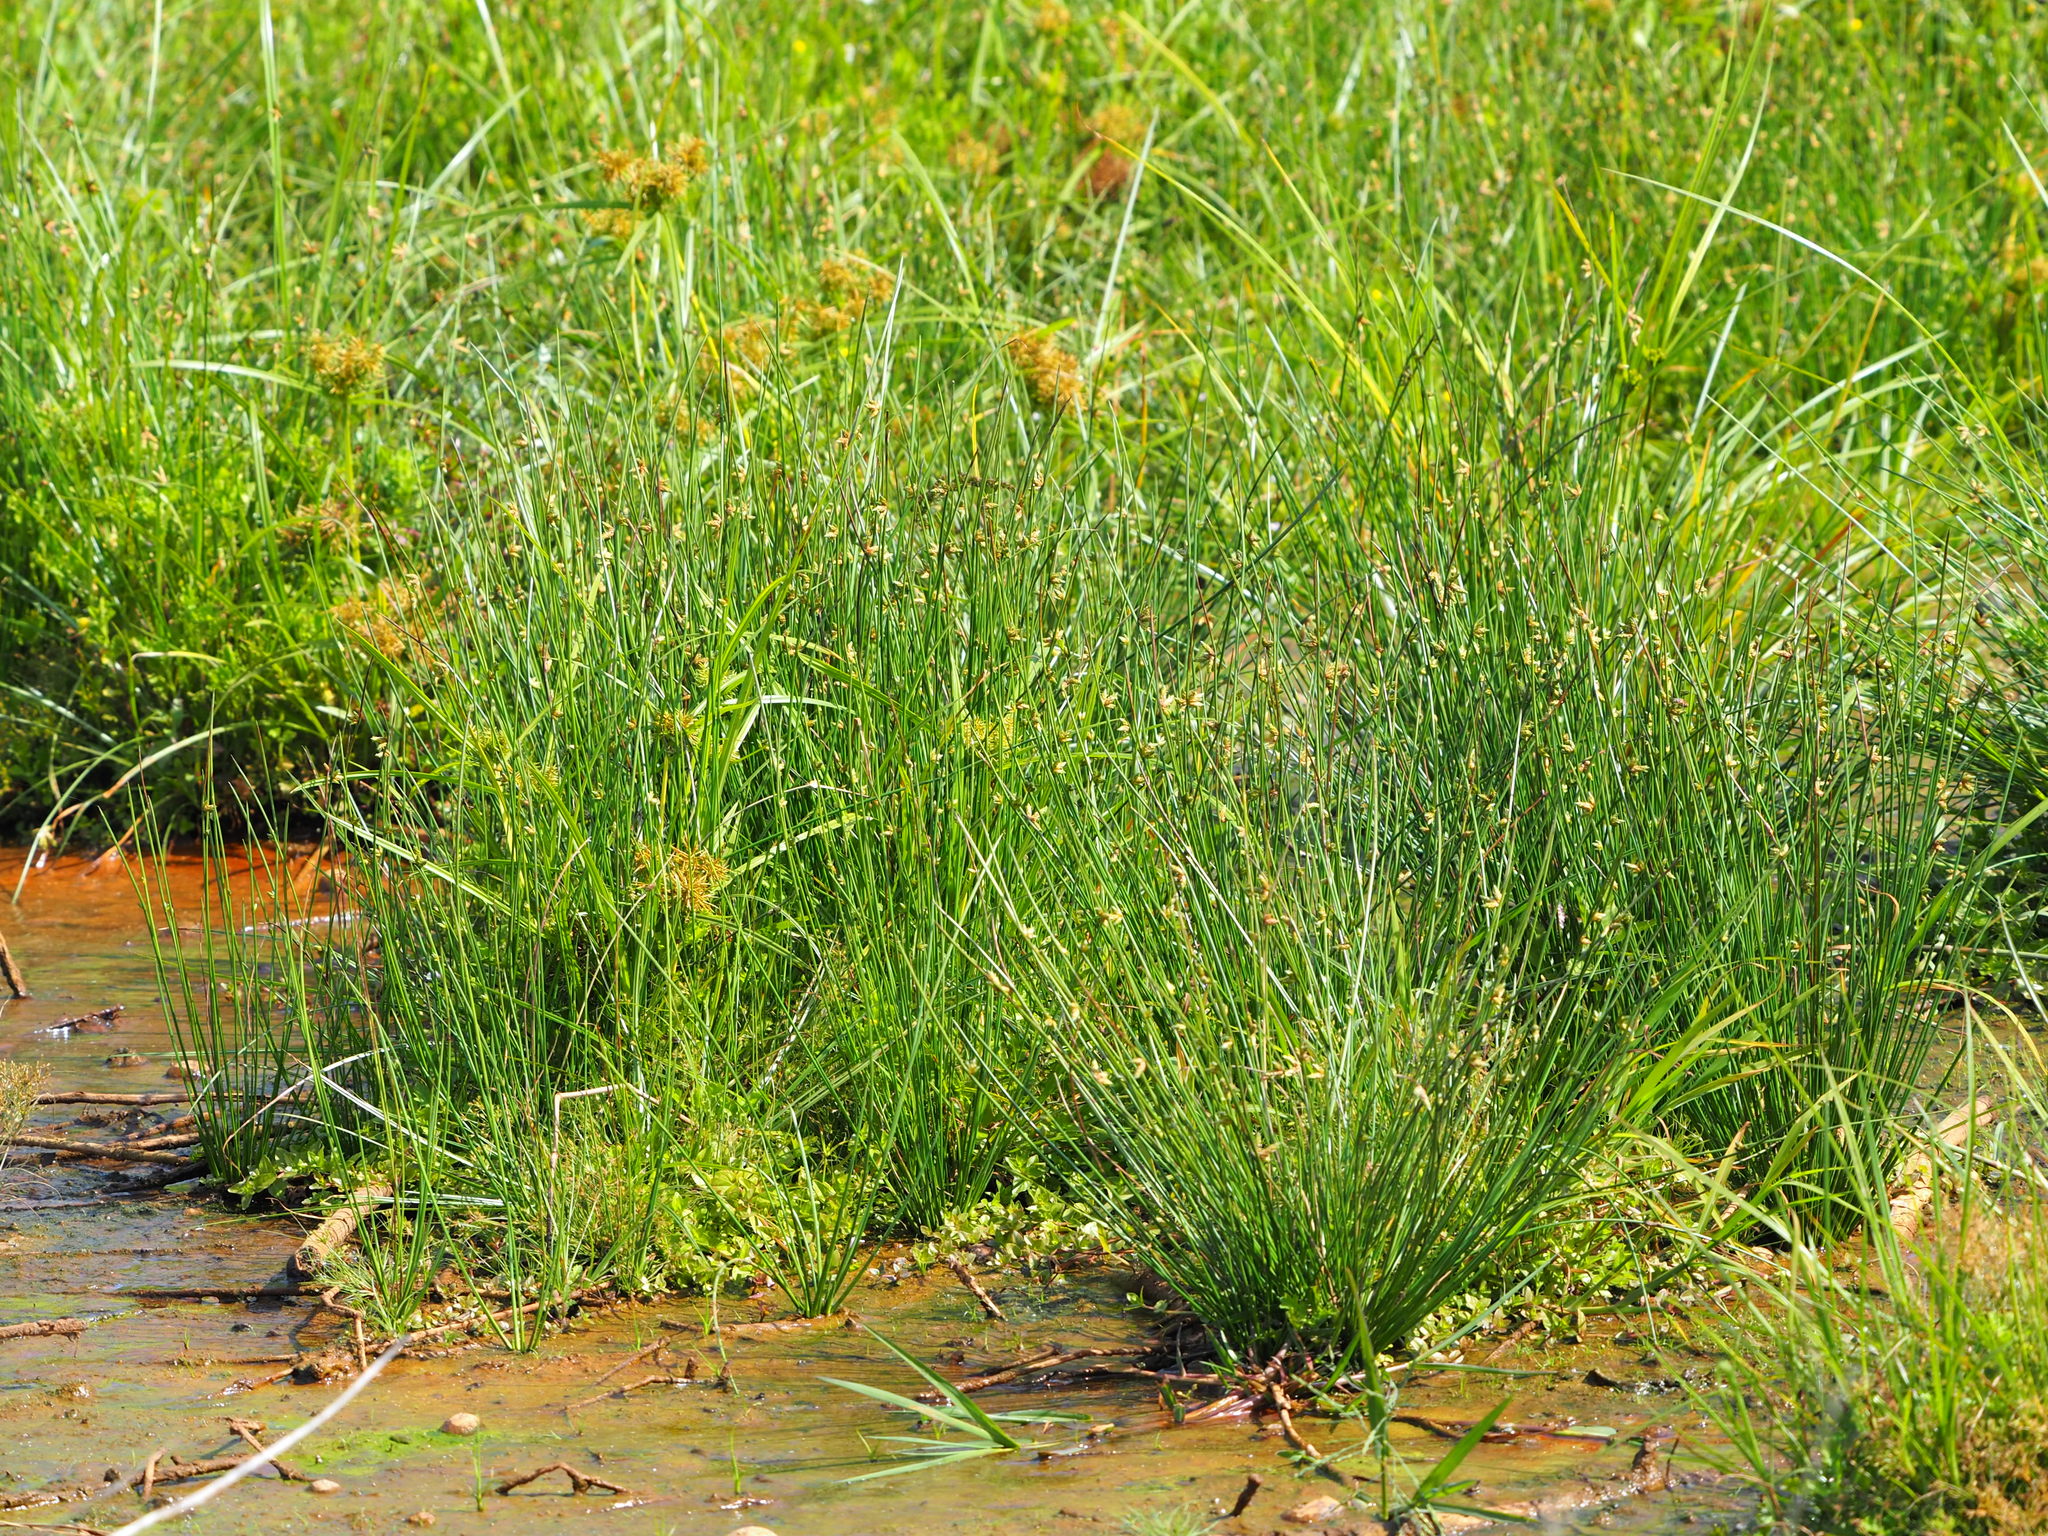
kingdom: Plantae
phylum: Tracheophyta
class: Liliopsida
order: Poales
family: Cyperaceae
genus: Schoenoplectiella
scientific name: Schoenoplectiella juncoides
